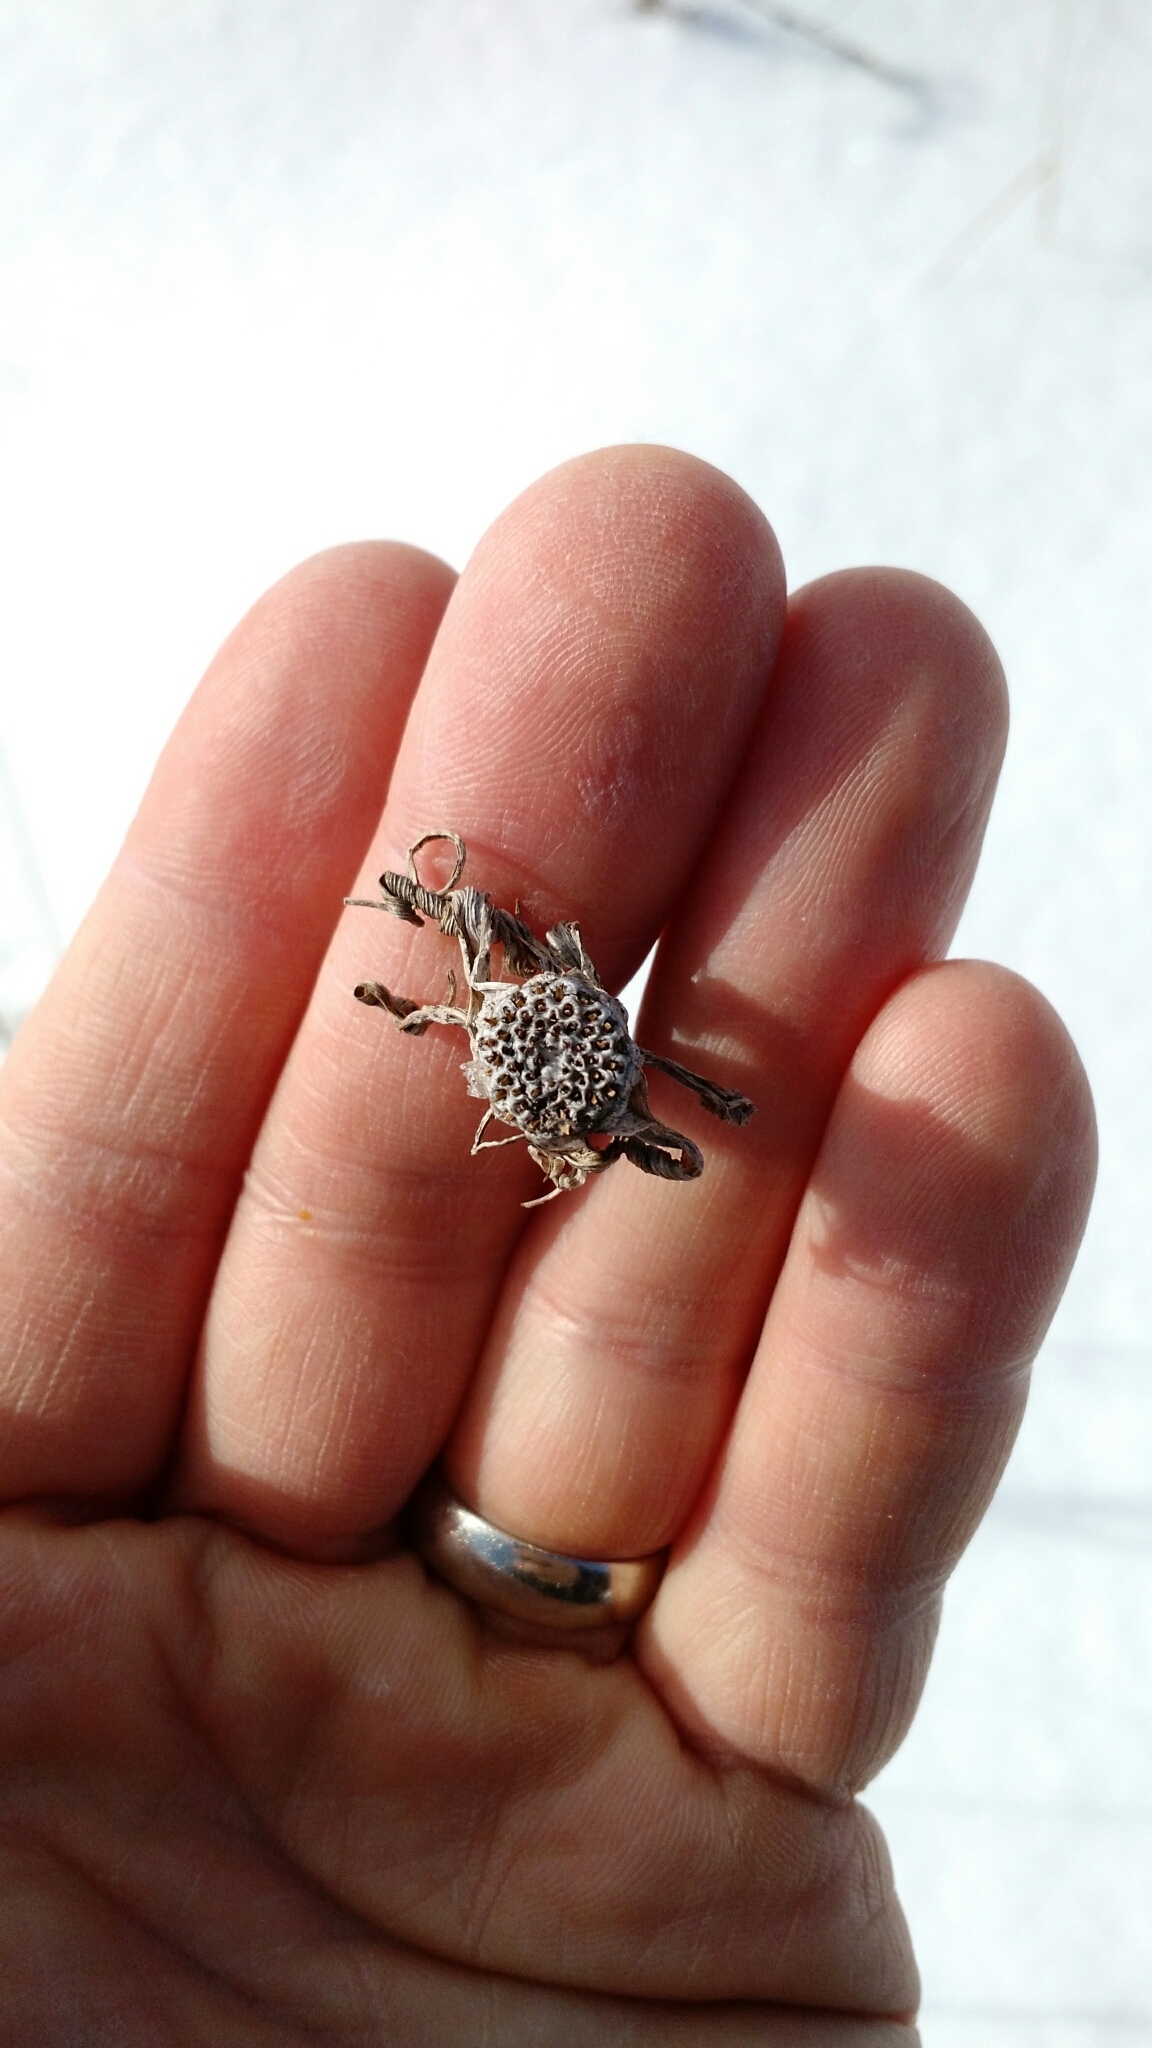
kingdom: Plantae
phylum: Tracheophyta
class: Magnoliopsida
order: Asterales
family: Asteraceae
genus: Tragopogon
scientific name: Tragopogon dubius
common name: Yellow salsify
